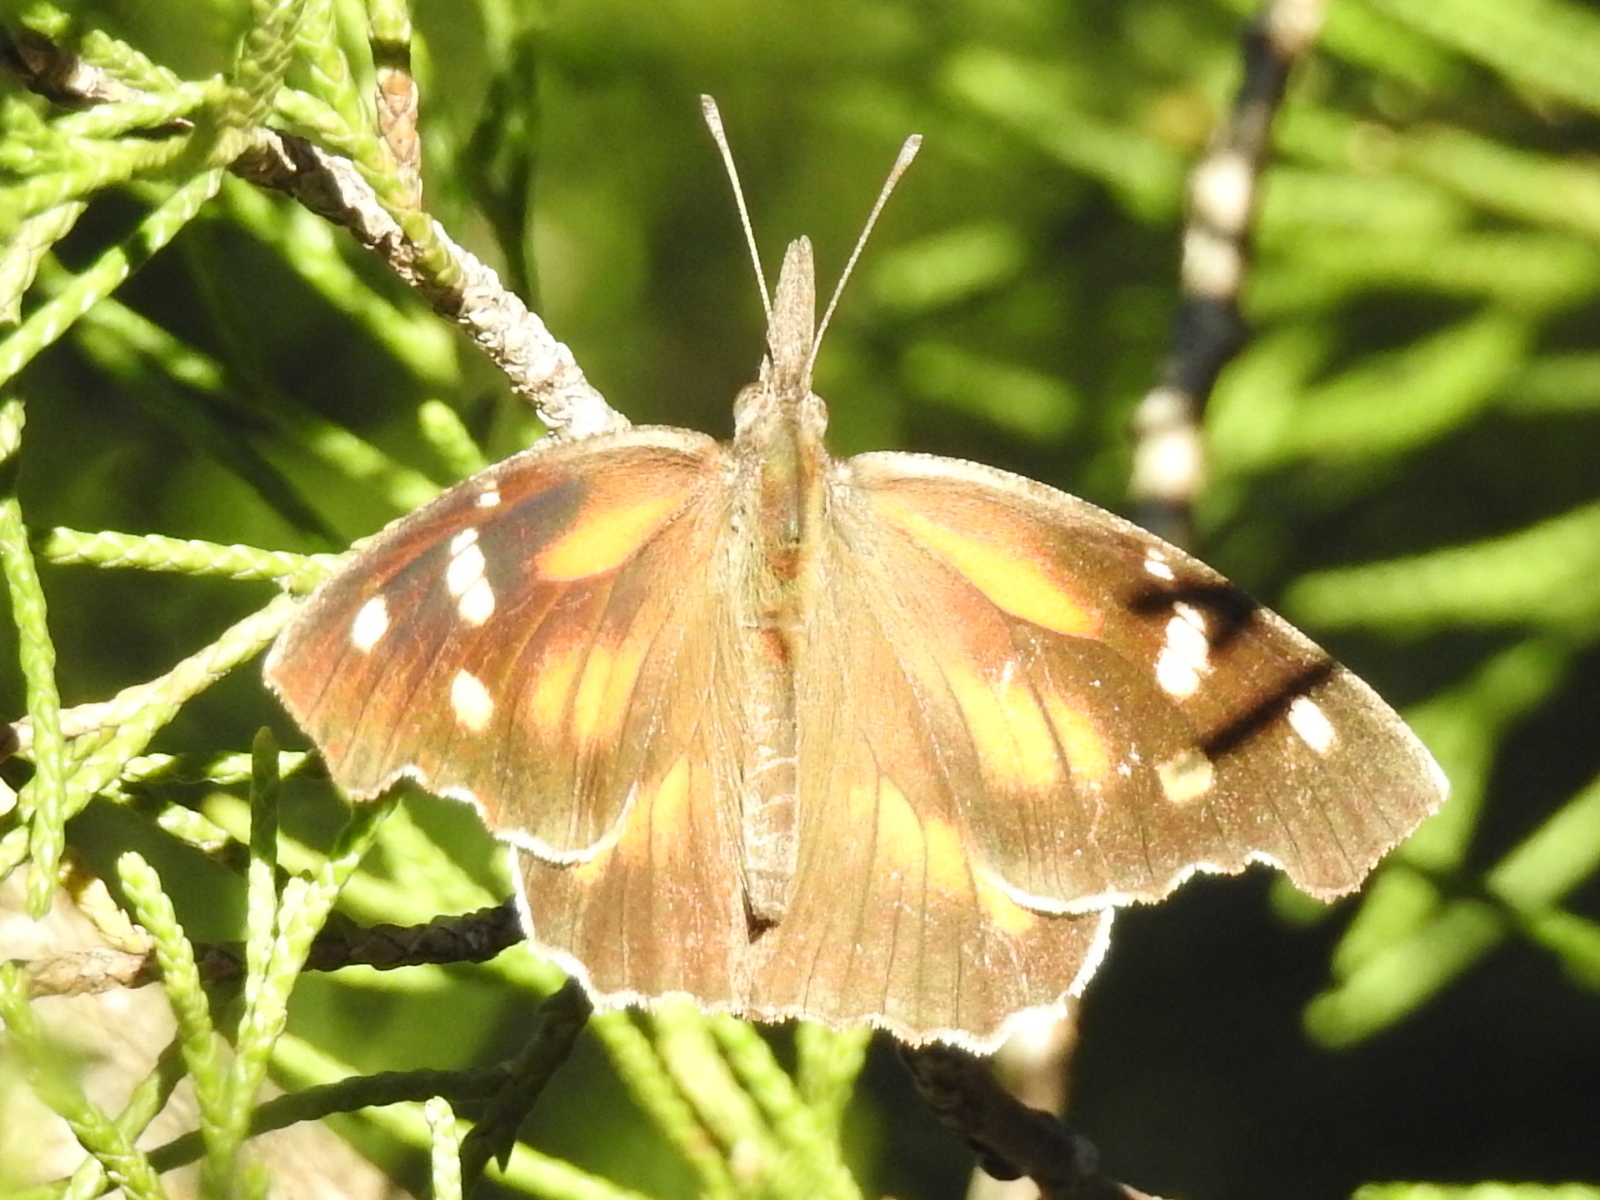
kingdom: Animalia
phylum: Arthropoda
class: Insecta
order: Lepidoptera
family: Nymphalidae
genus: Libytheana
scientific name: Libytheana carinenta
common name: American snout
